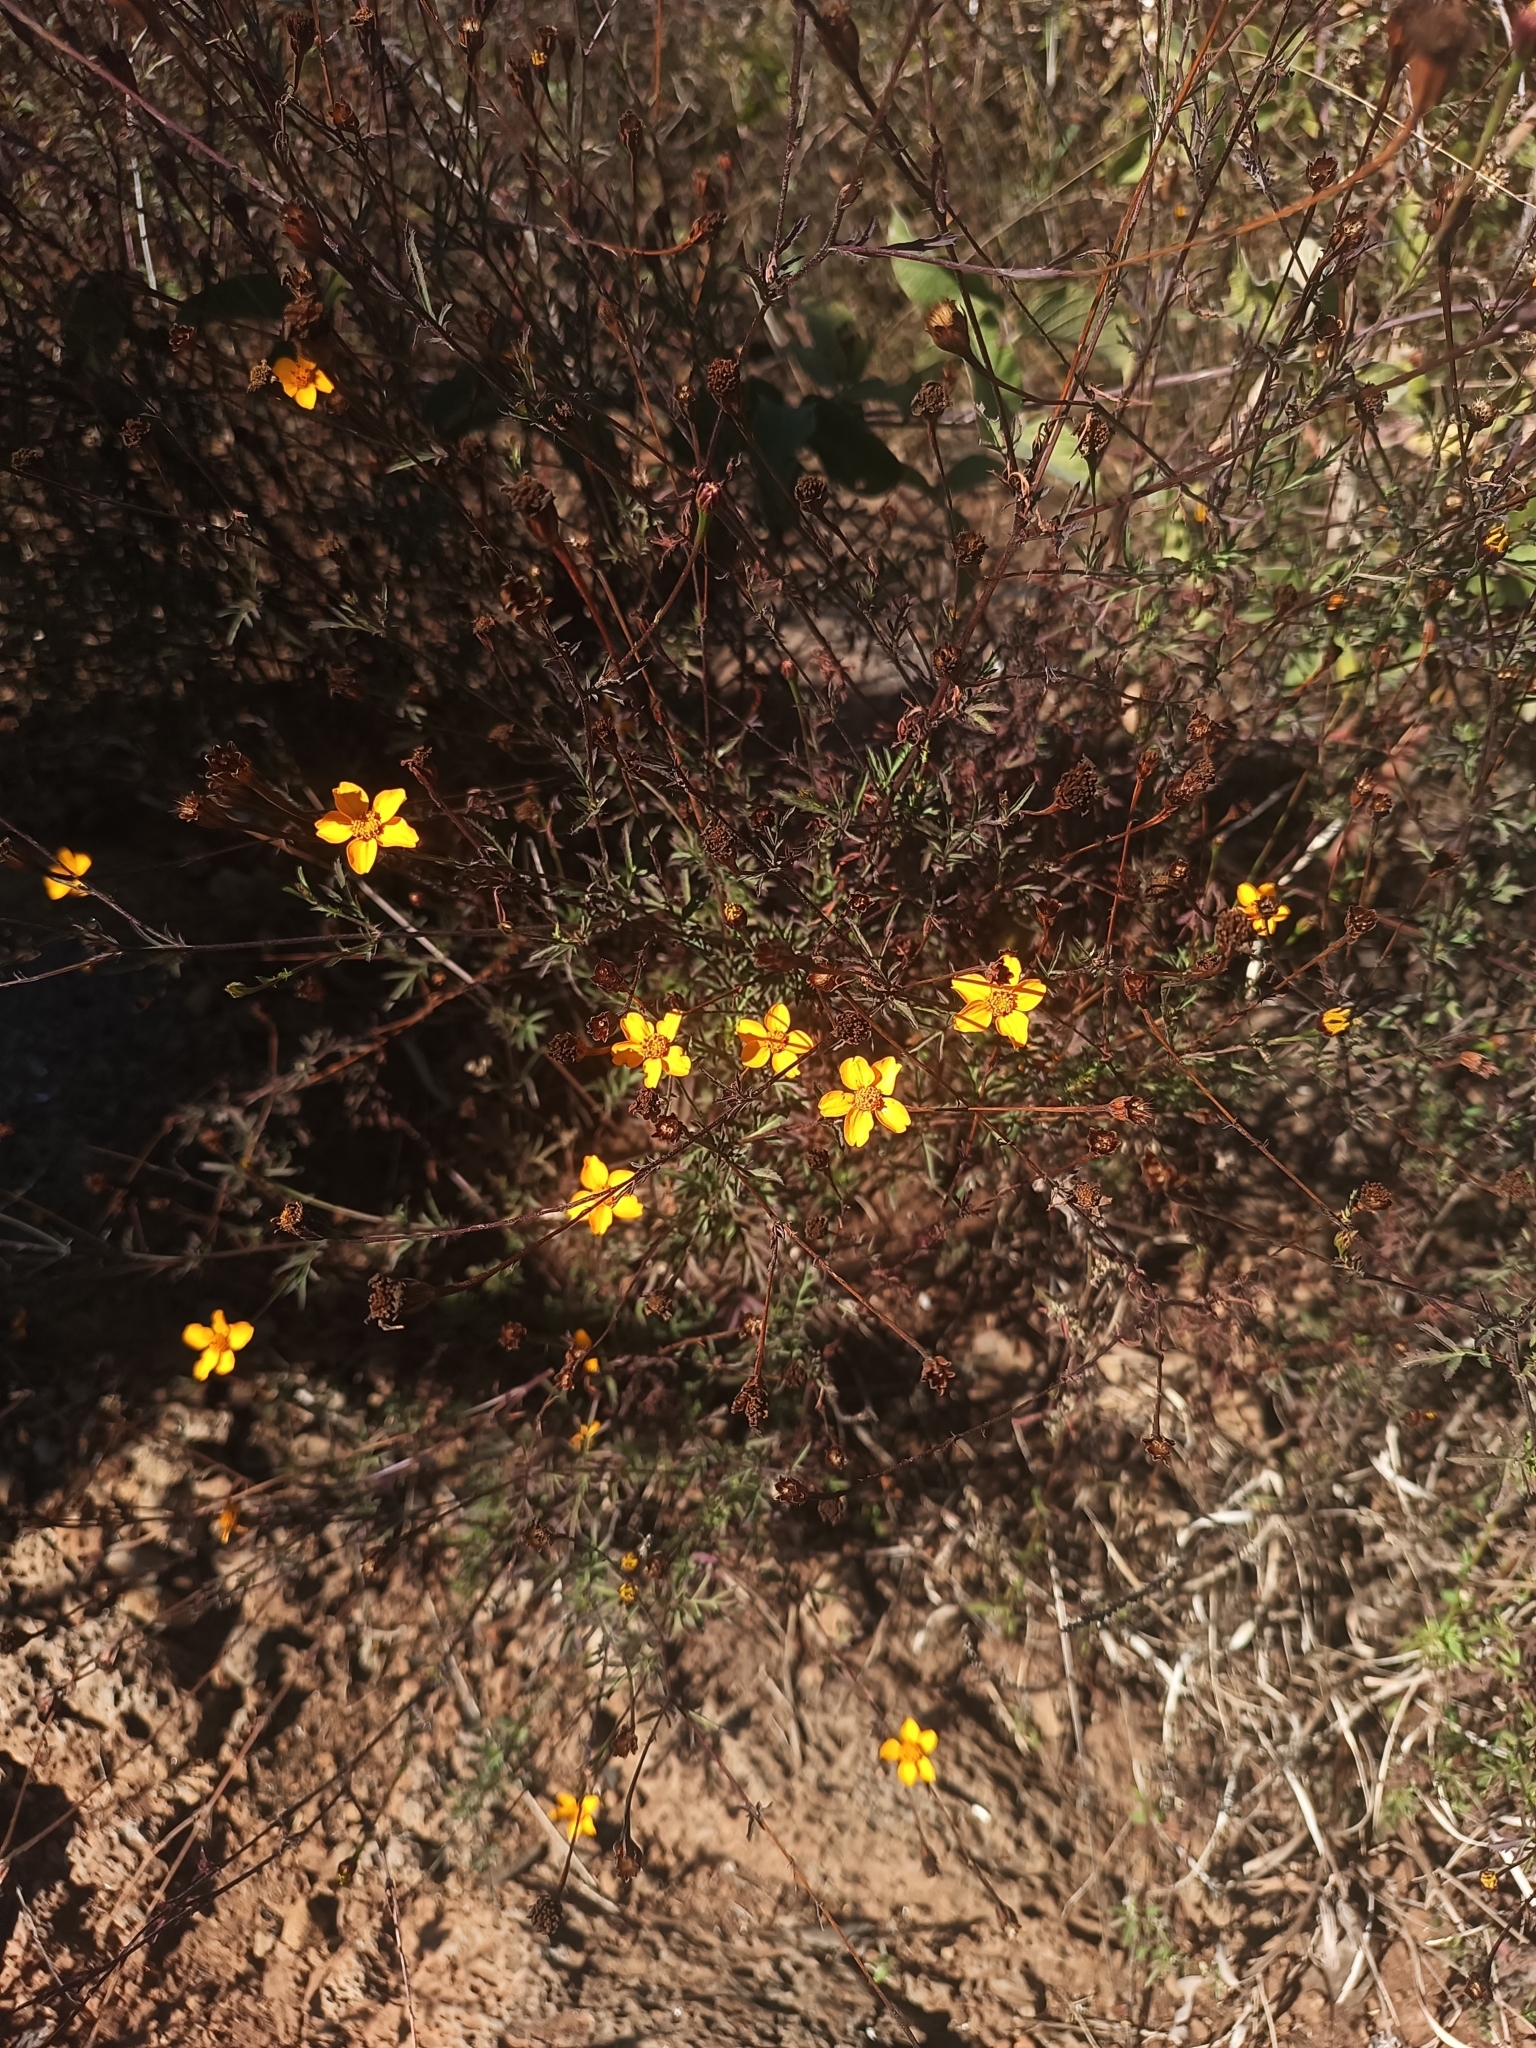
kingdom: Plantae
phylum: Tracheophyta
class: Magnoliopsida
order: Asterales
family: Asteraceae
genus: Dyssodia
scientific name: Dyssodia tagetiflora
